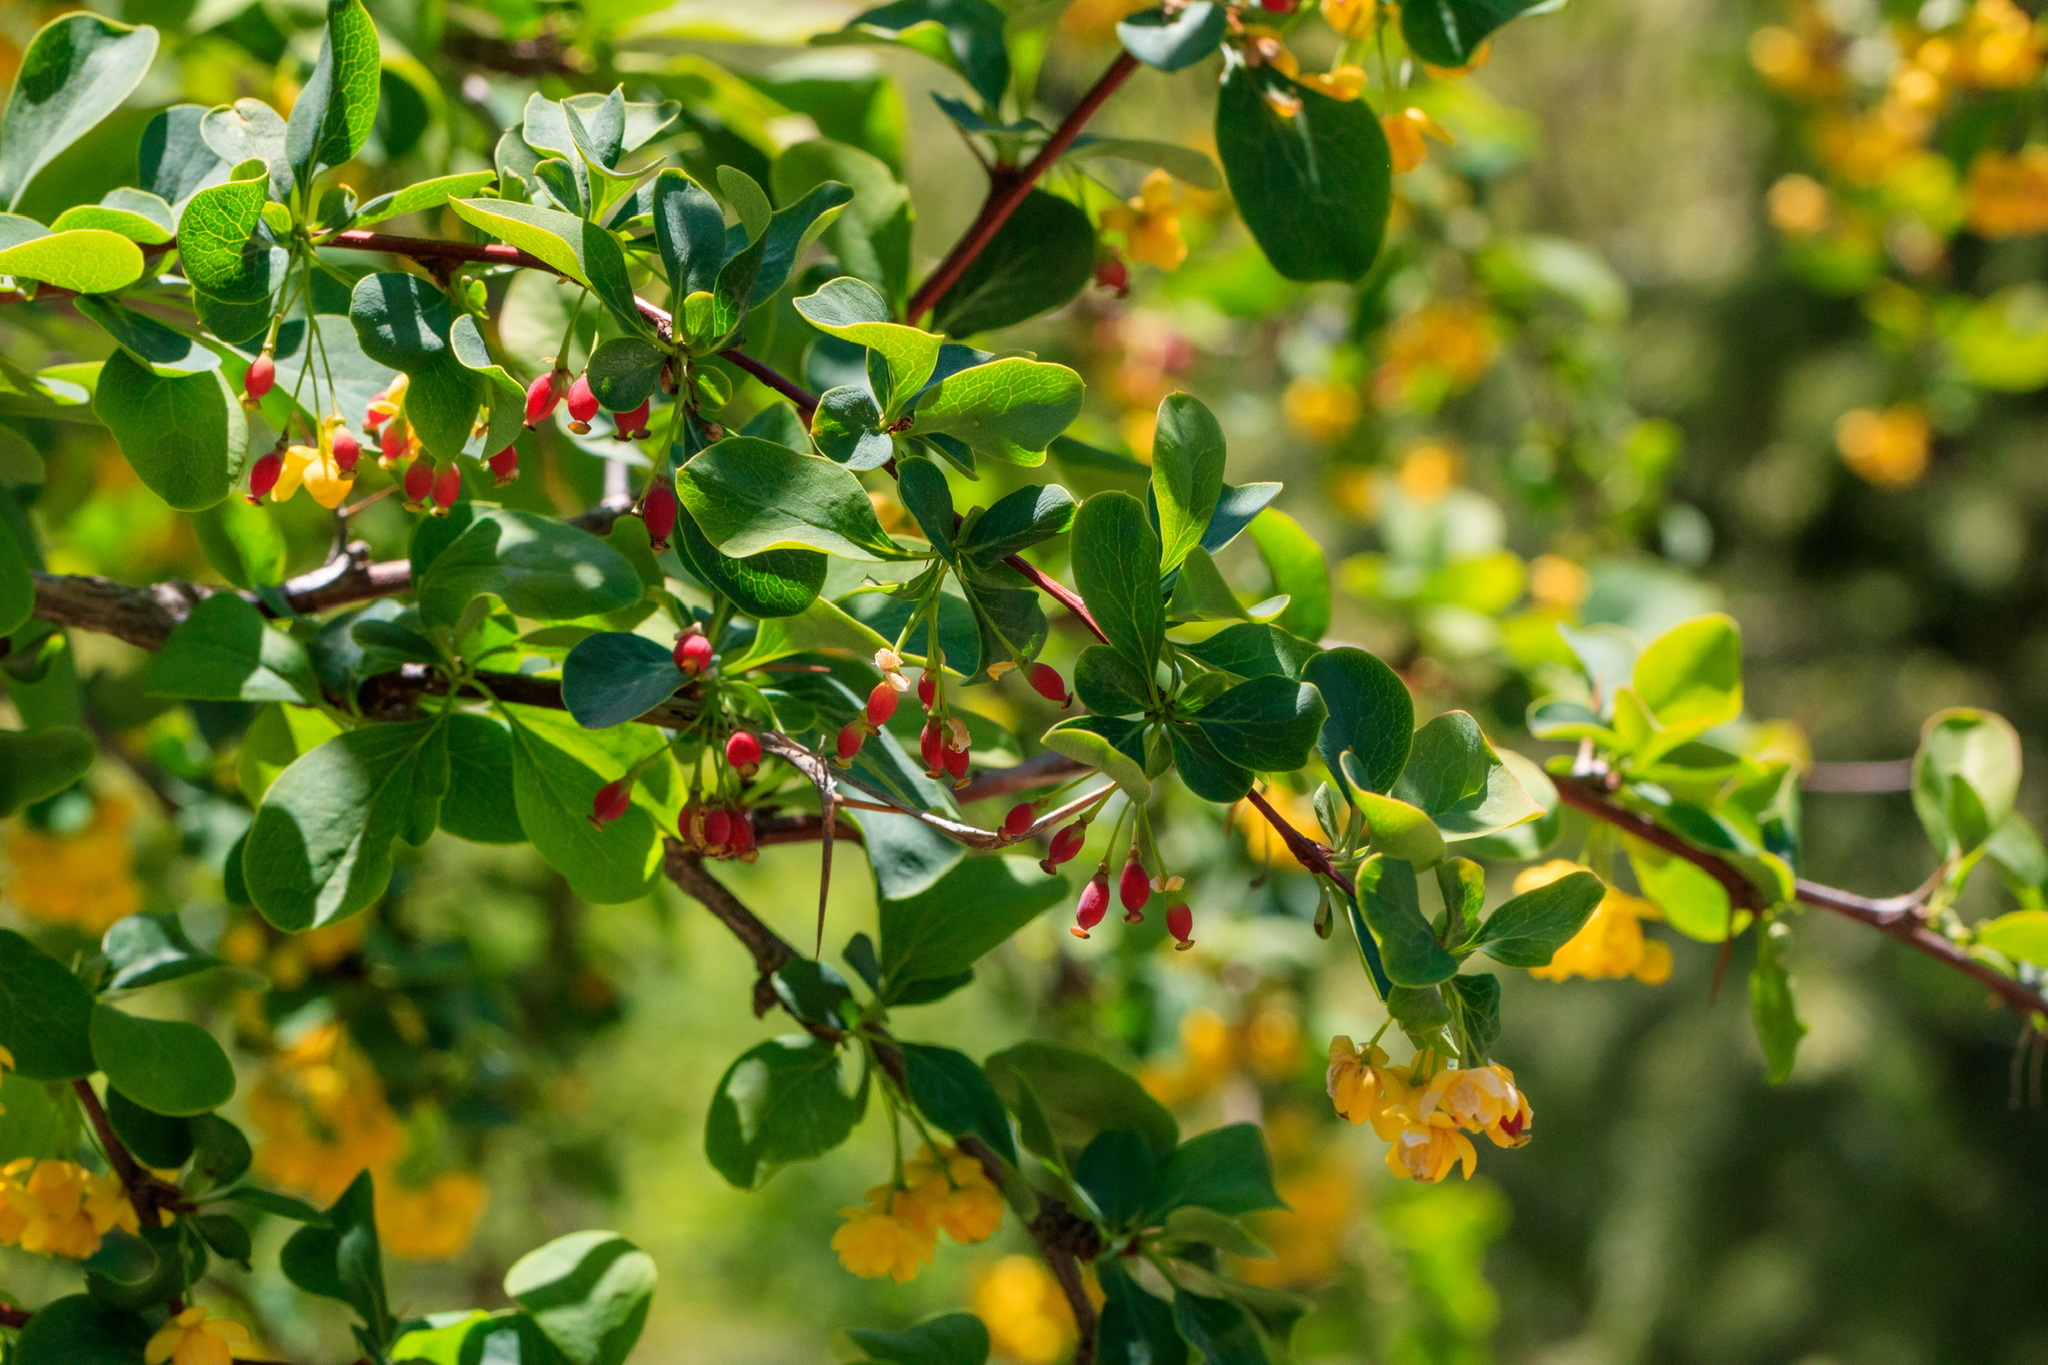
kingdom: Plantae
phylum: Tracheophyta
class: Magnoliopsida
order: Ranunculales
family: Berberidaceae
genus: Berberis
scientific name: Berberis heteropoda
